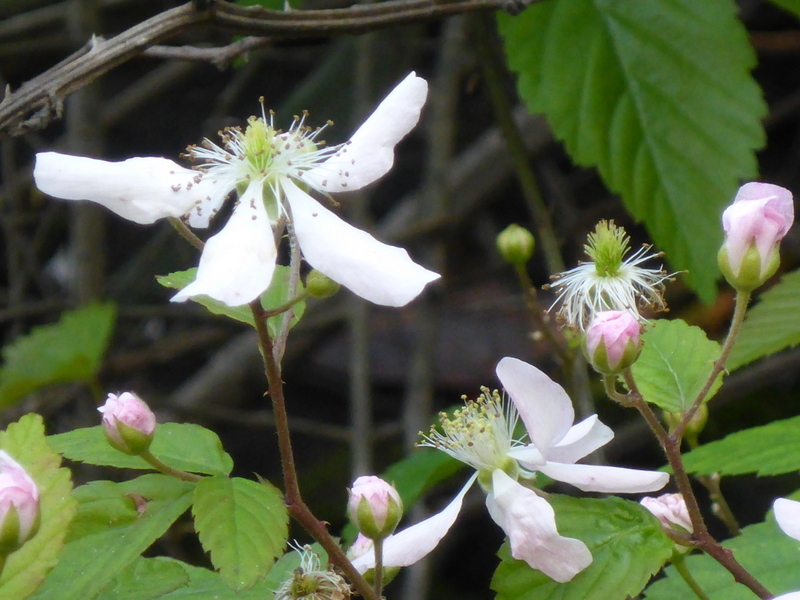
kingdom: Plantae
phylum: Tracheophyta
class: Magnoliopsida
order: Rosales
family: Rosaceae
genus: Rubus
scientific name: Rubus pensilvanicus
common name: Pennsylvania blackberry
